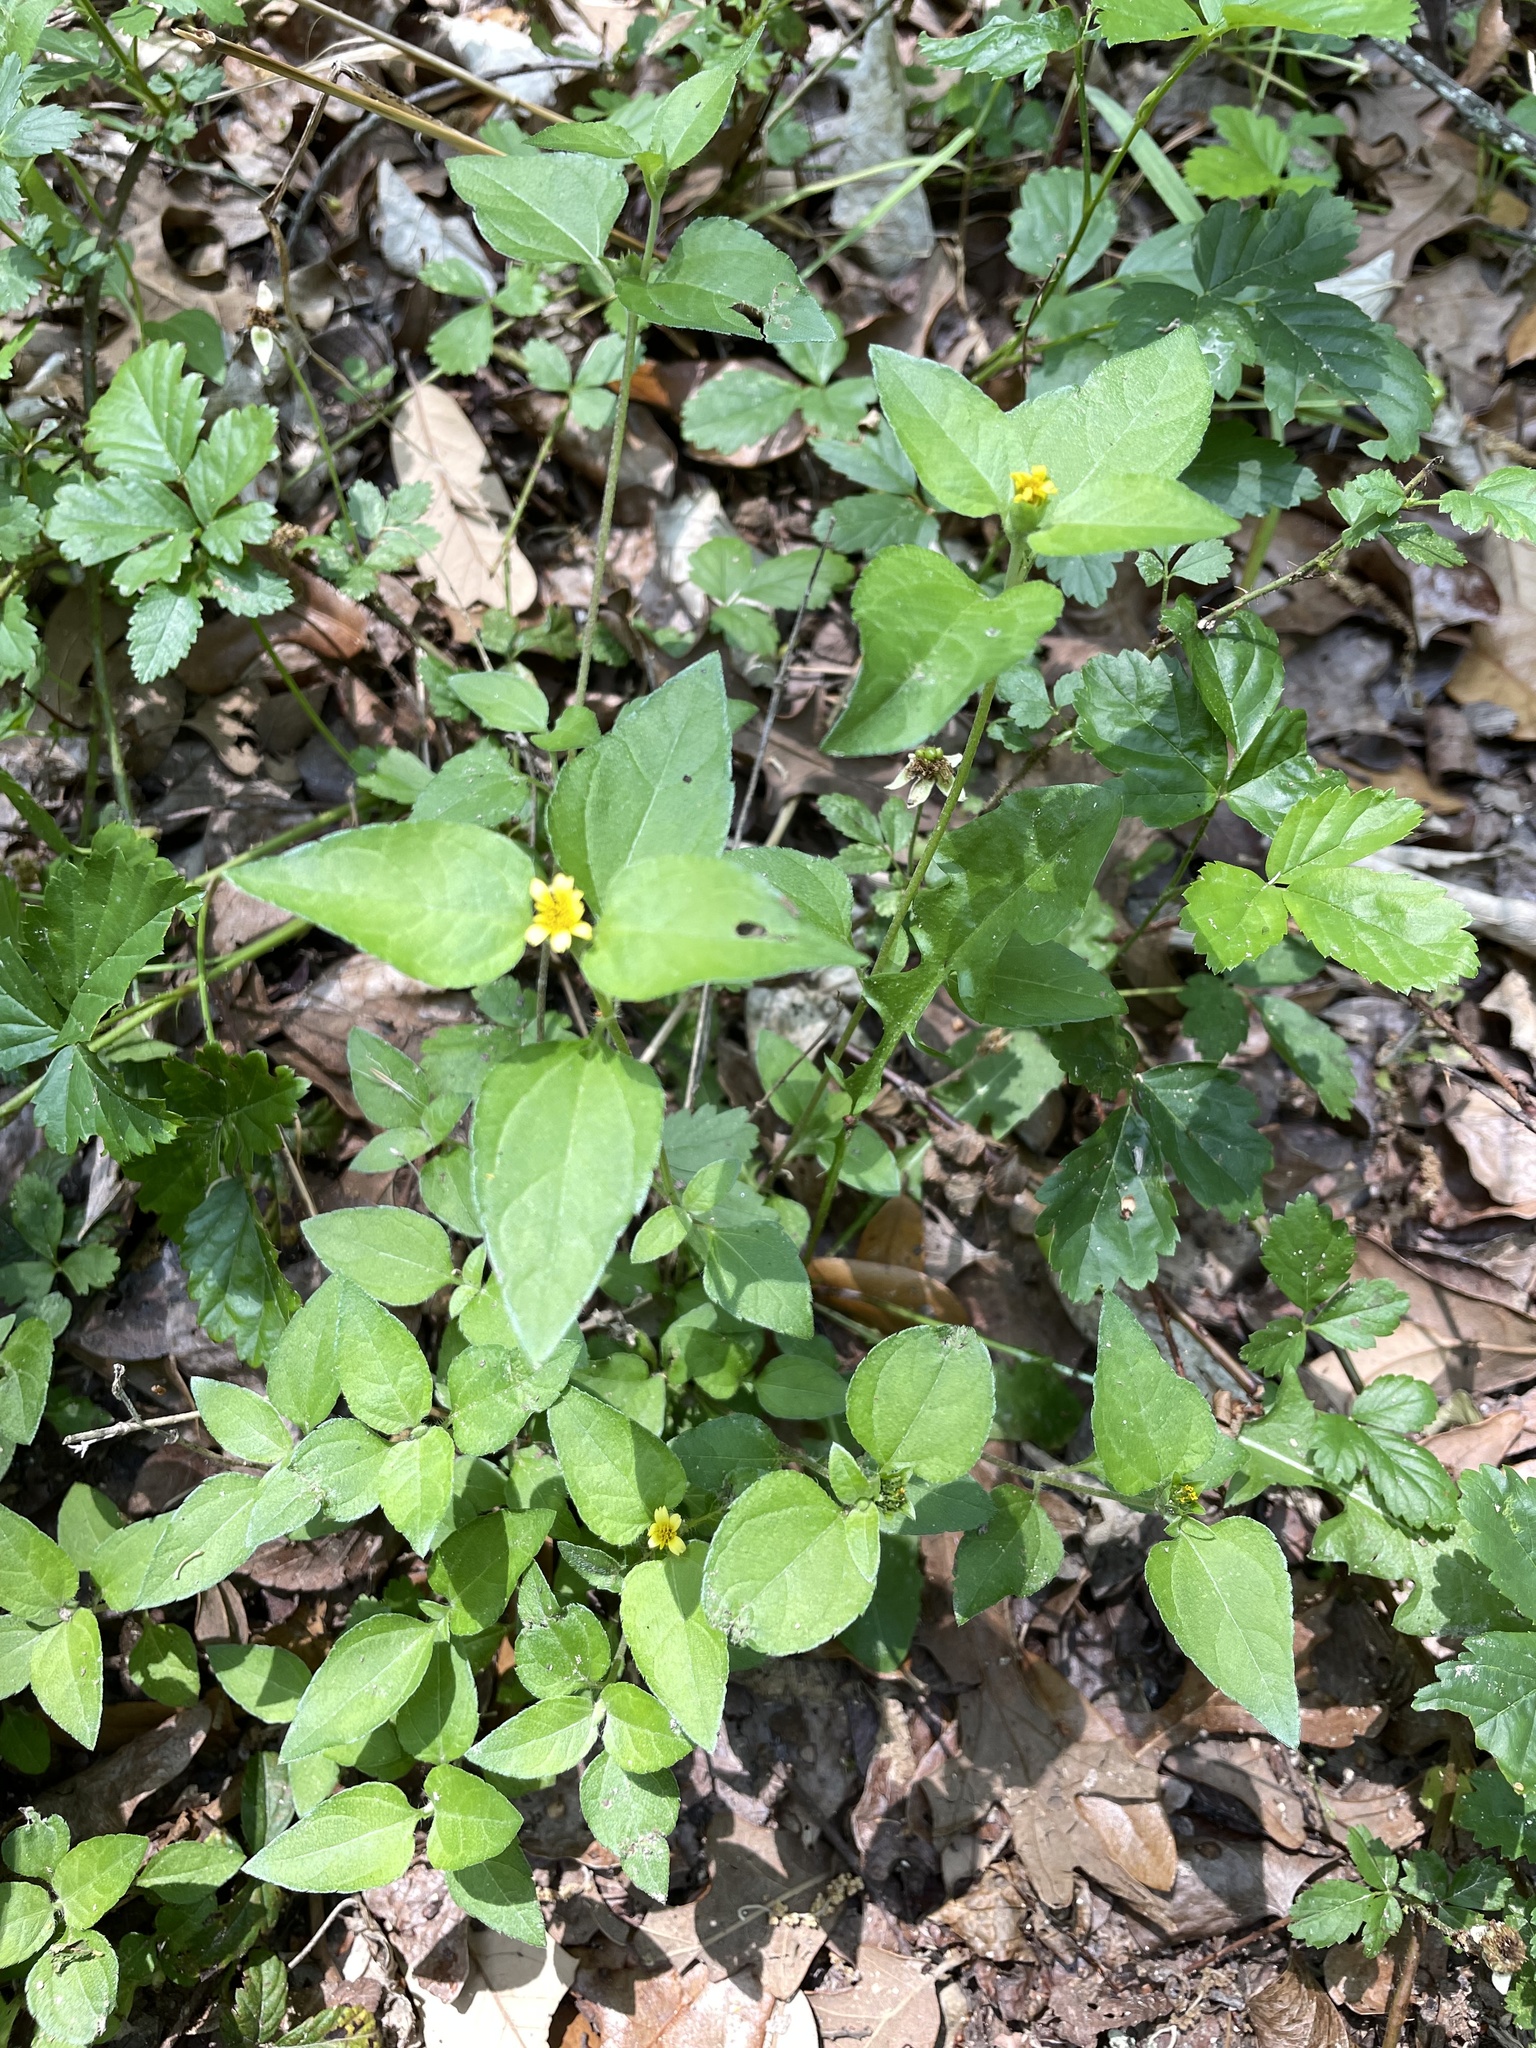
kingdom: Plantae
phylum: Tracheophyta
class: Magnoliopsida
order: Asterales
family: Asteraceae
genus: Calyptocarpus
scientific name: Calyptocarpus vialis
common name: Straggler daisy
